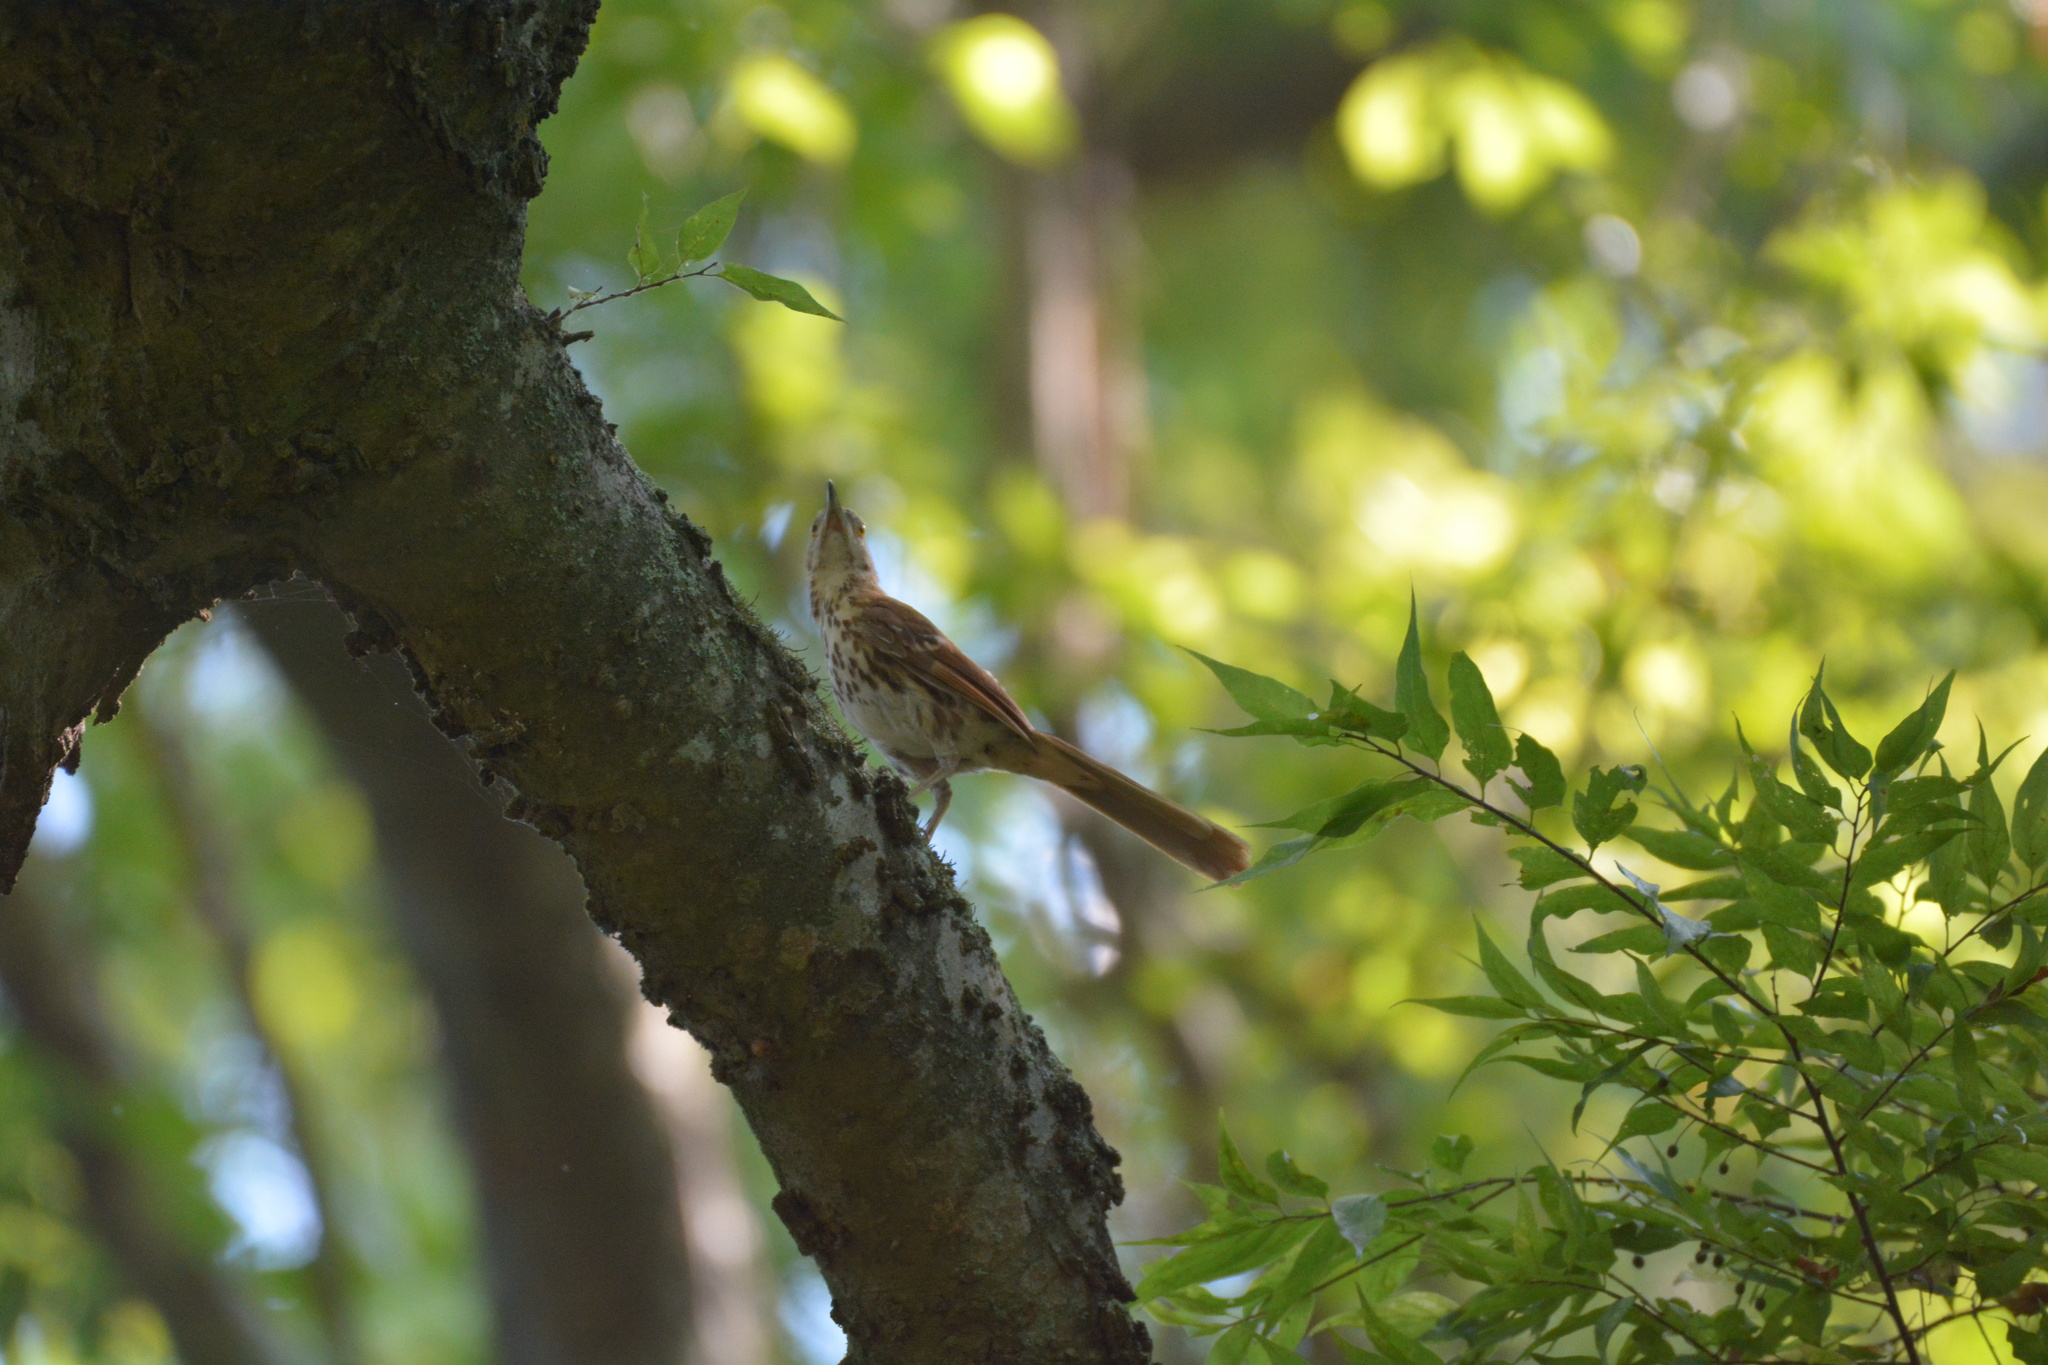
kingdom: Animalia
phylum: Chordata
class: Aves
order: Passeriformes
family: Mimidae
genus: Toxostoma
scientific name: Toxostoma rufum
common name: Brown thrasher
